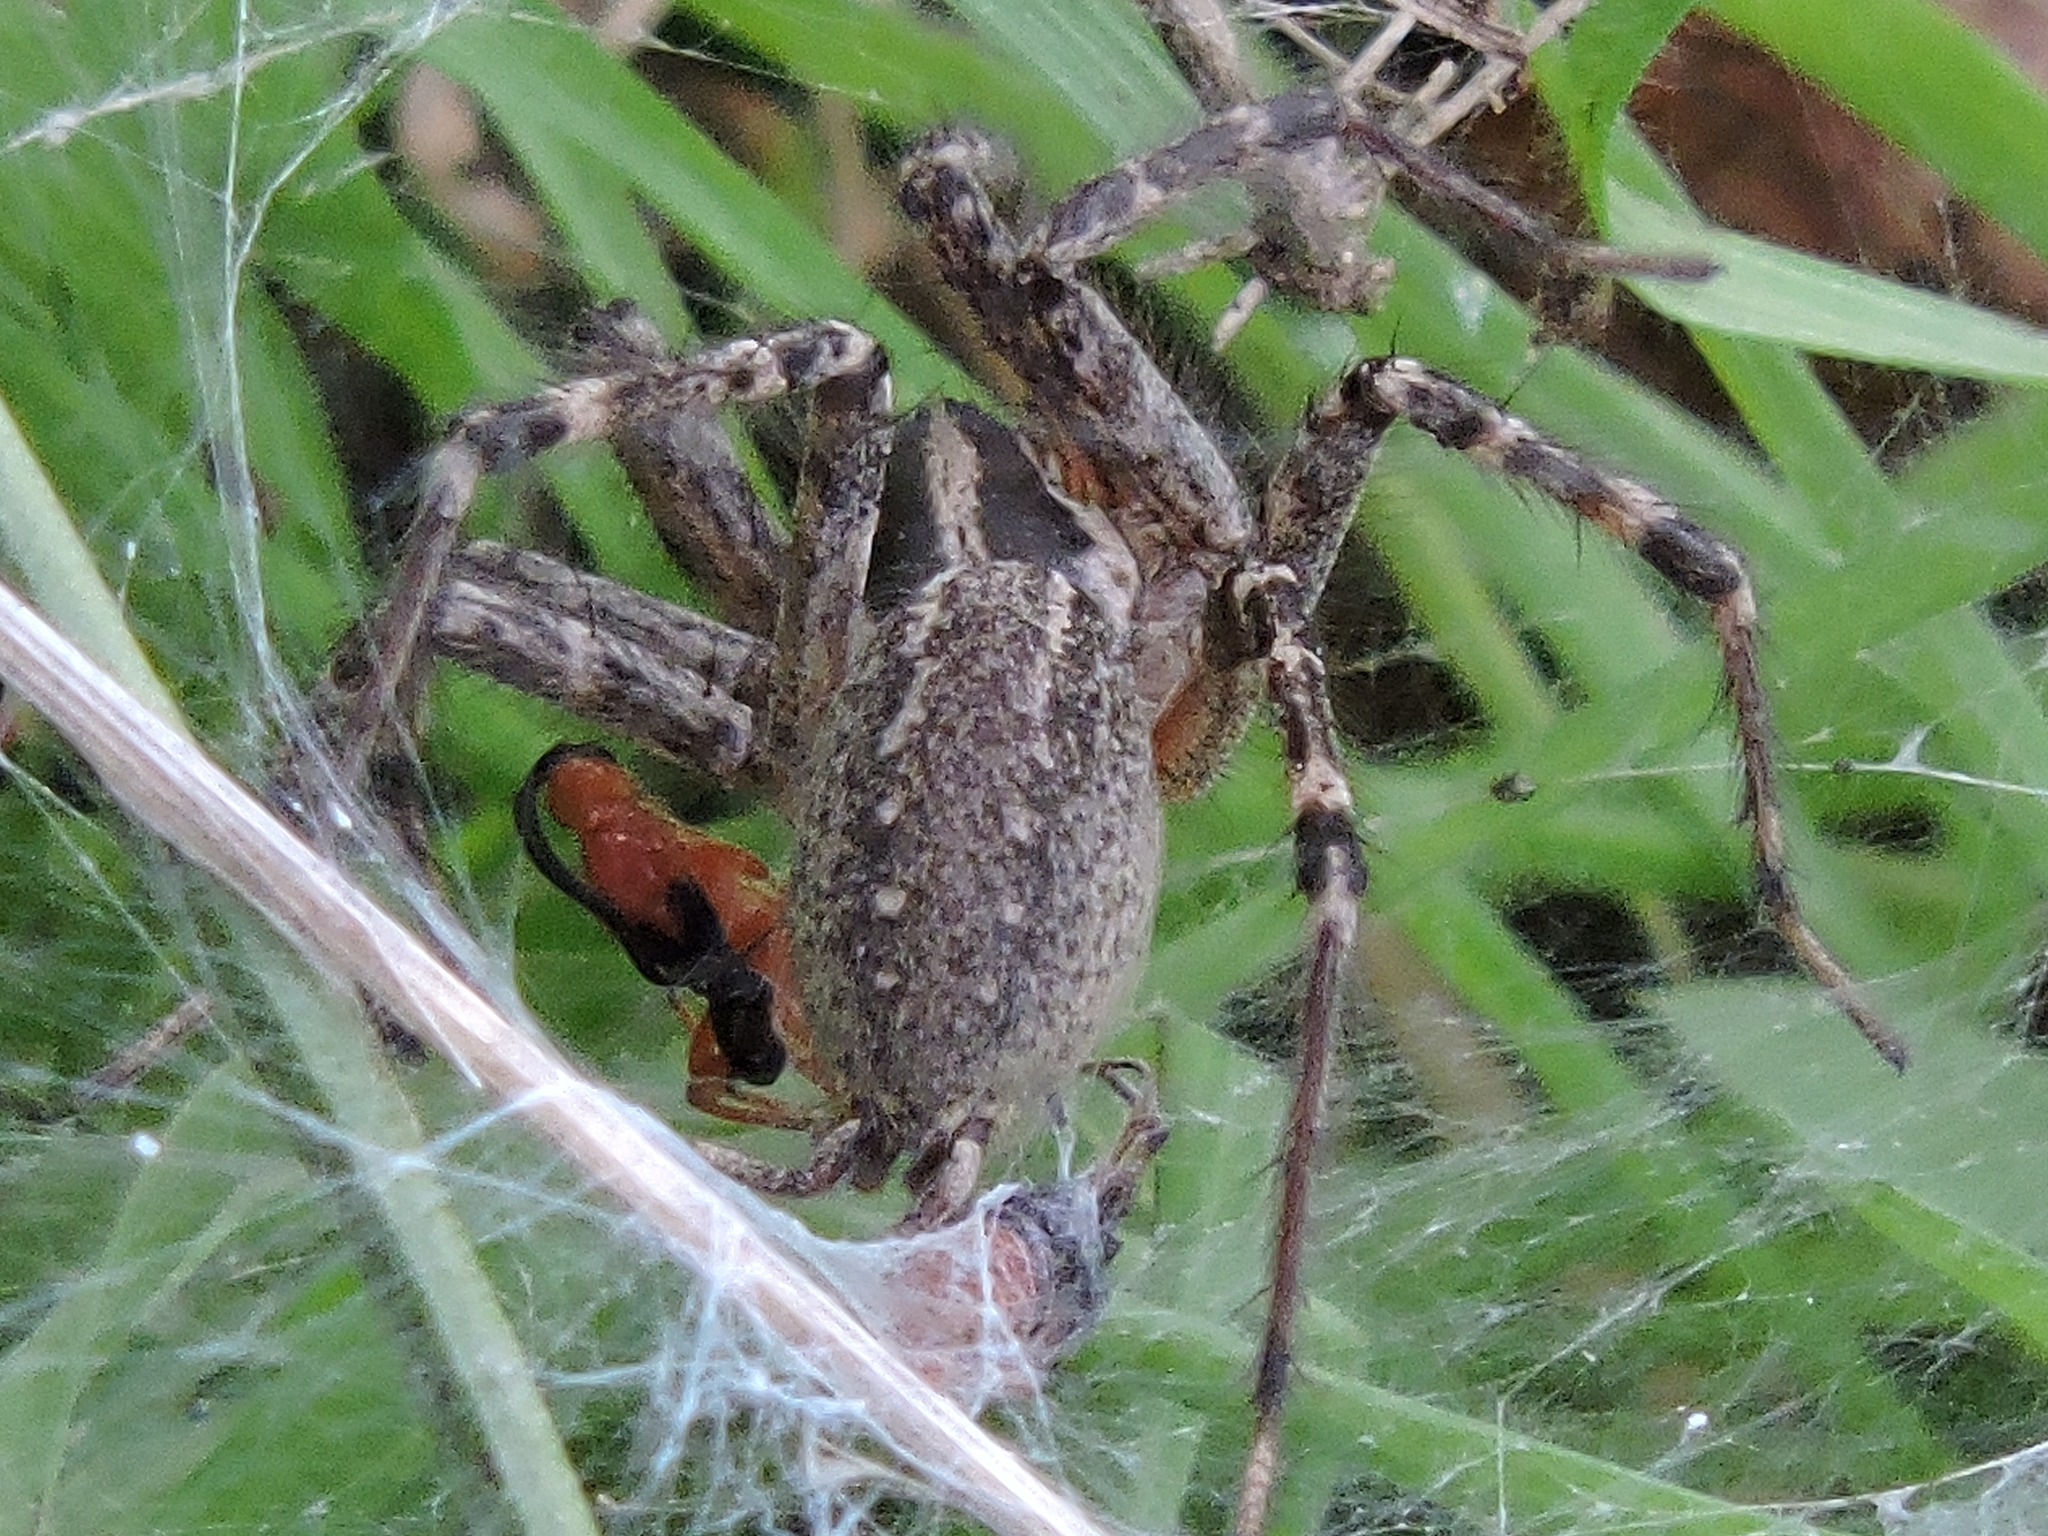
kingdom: Animalia
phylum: Arthropoda
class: Arachnida
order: Araneae
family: Agelenidae
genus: Agelenopsis
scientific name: Agelenopsis
